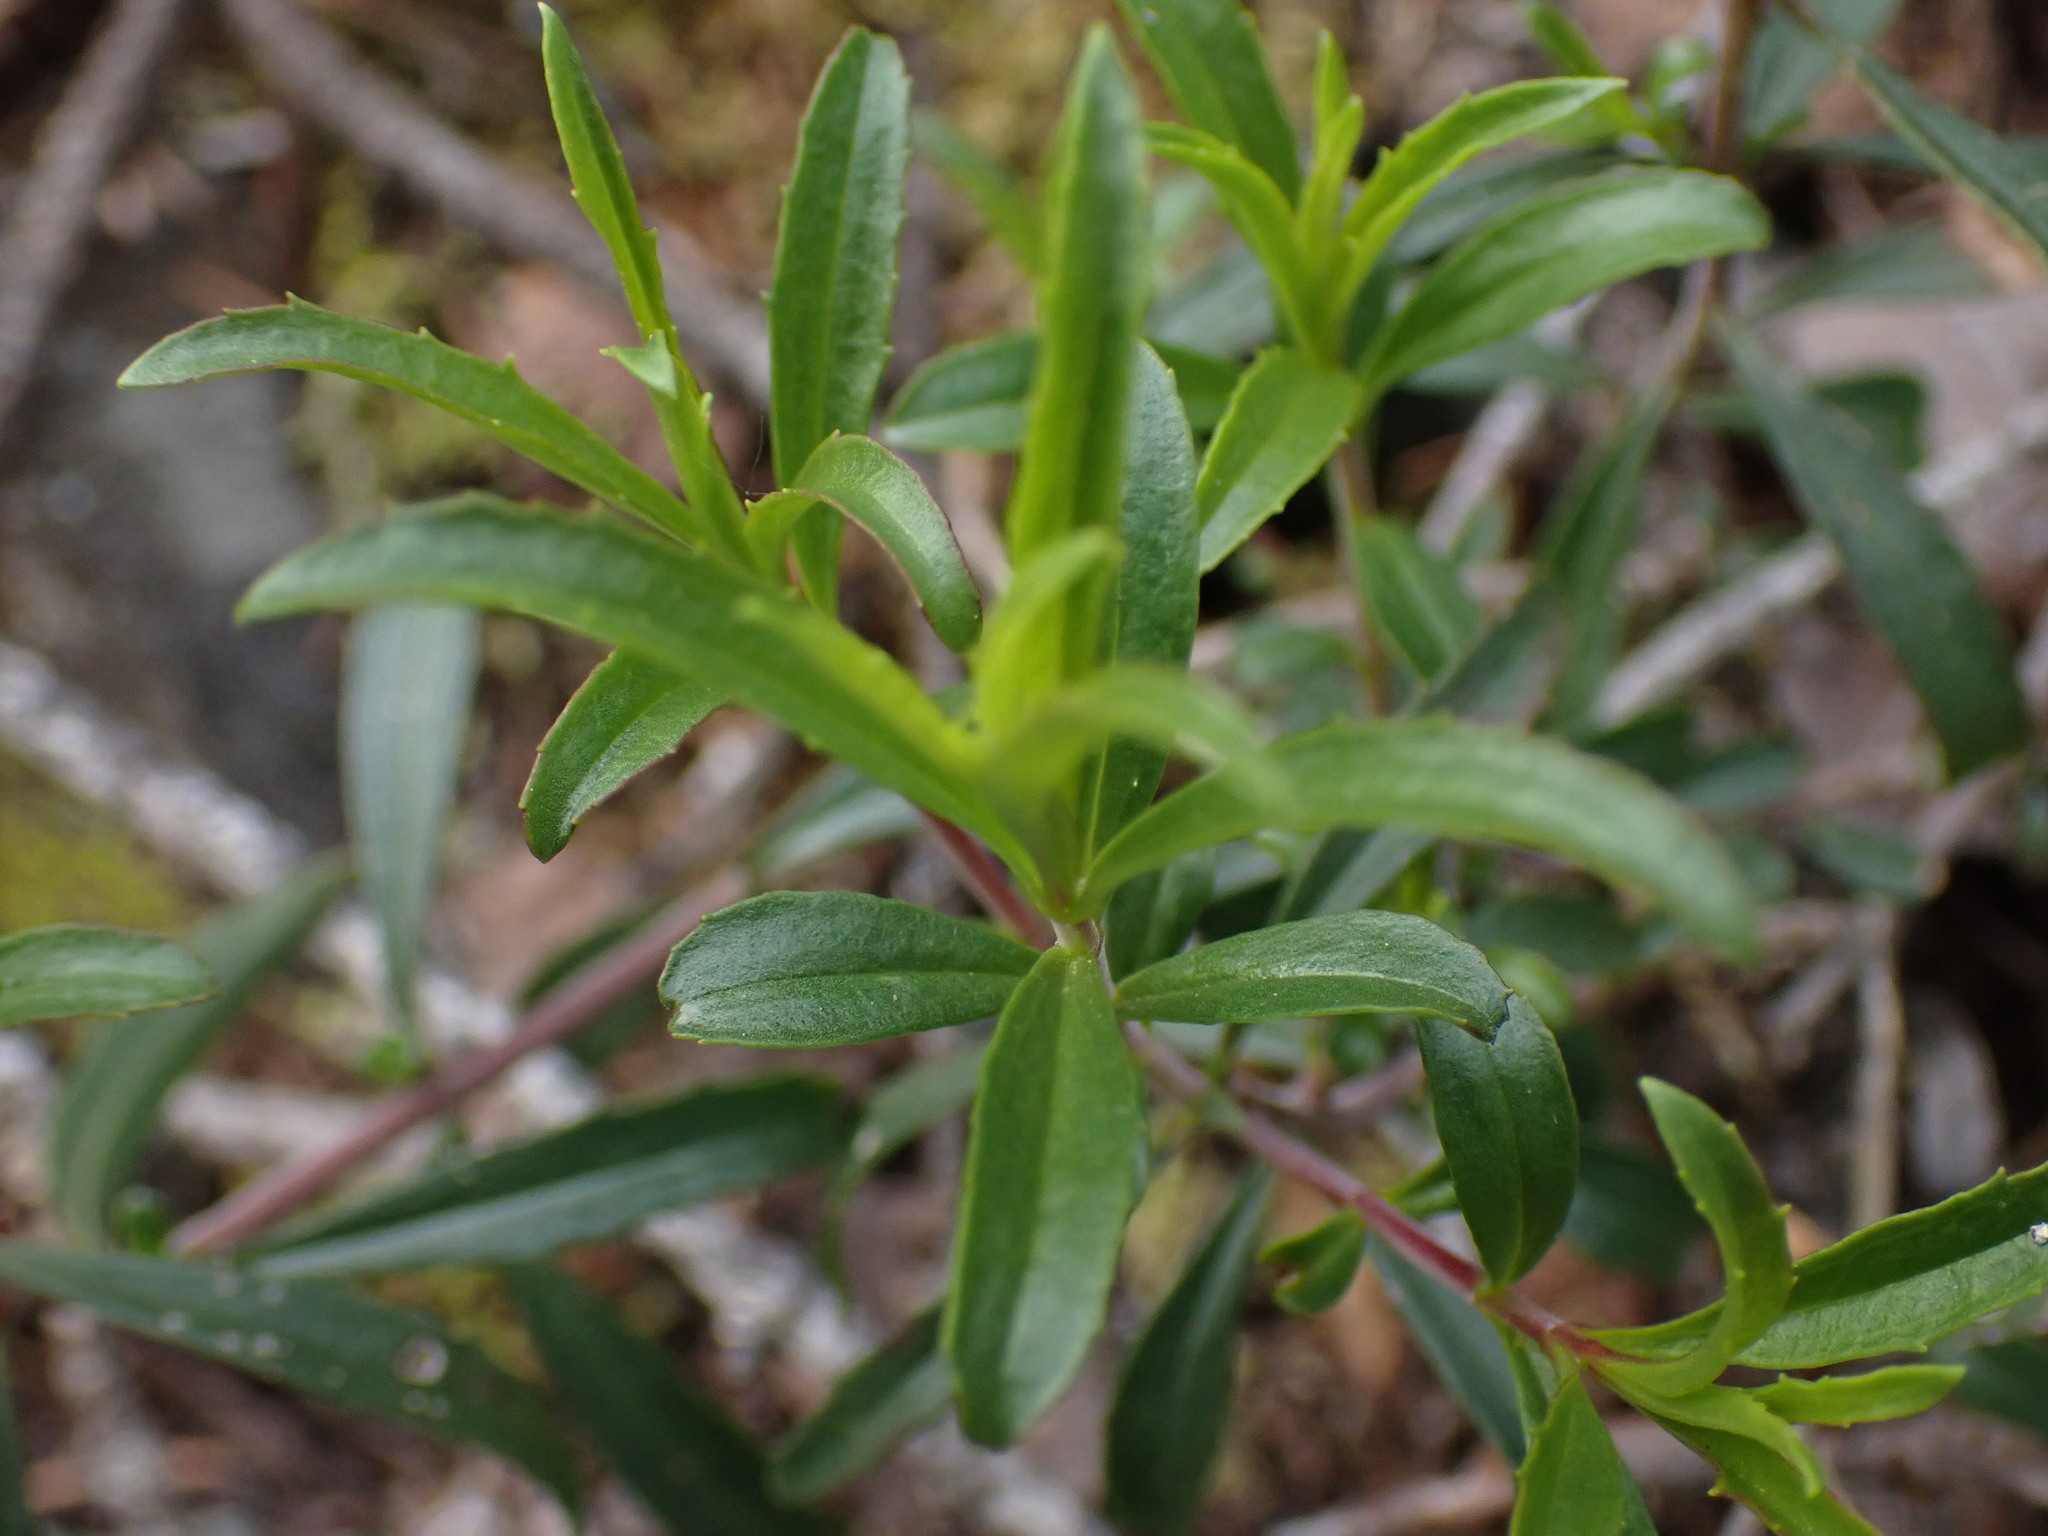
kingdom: Plantae
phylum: Tracheophyta
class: Magnoliopsida
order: Lamiales
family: Plantaginaceae
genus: Penstemon
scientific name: Penstemon fruticosus
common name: Bush penstemon
